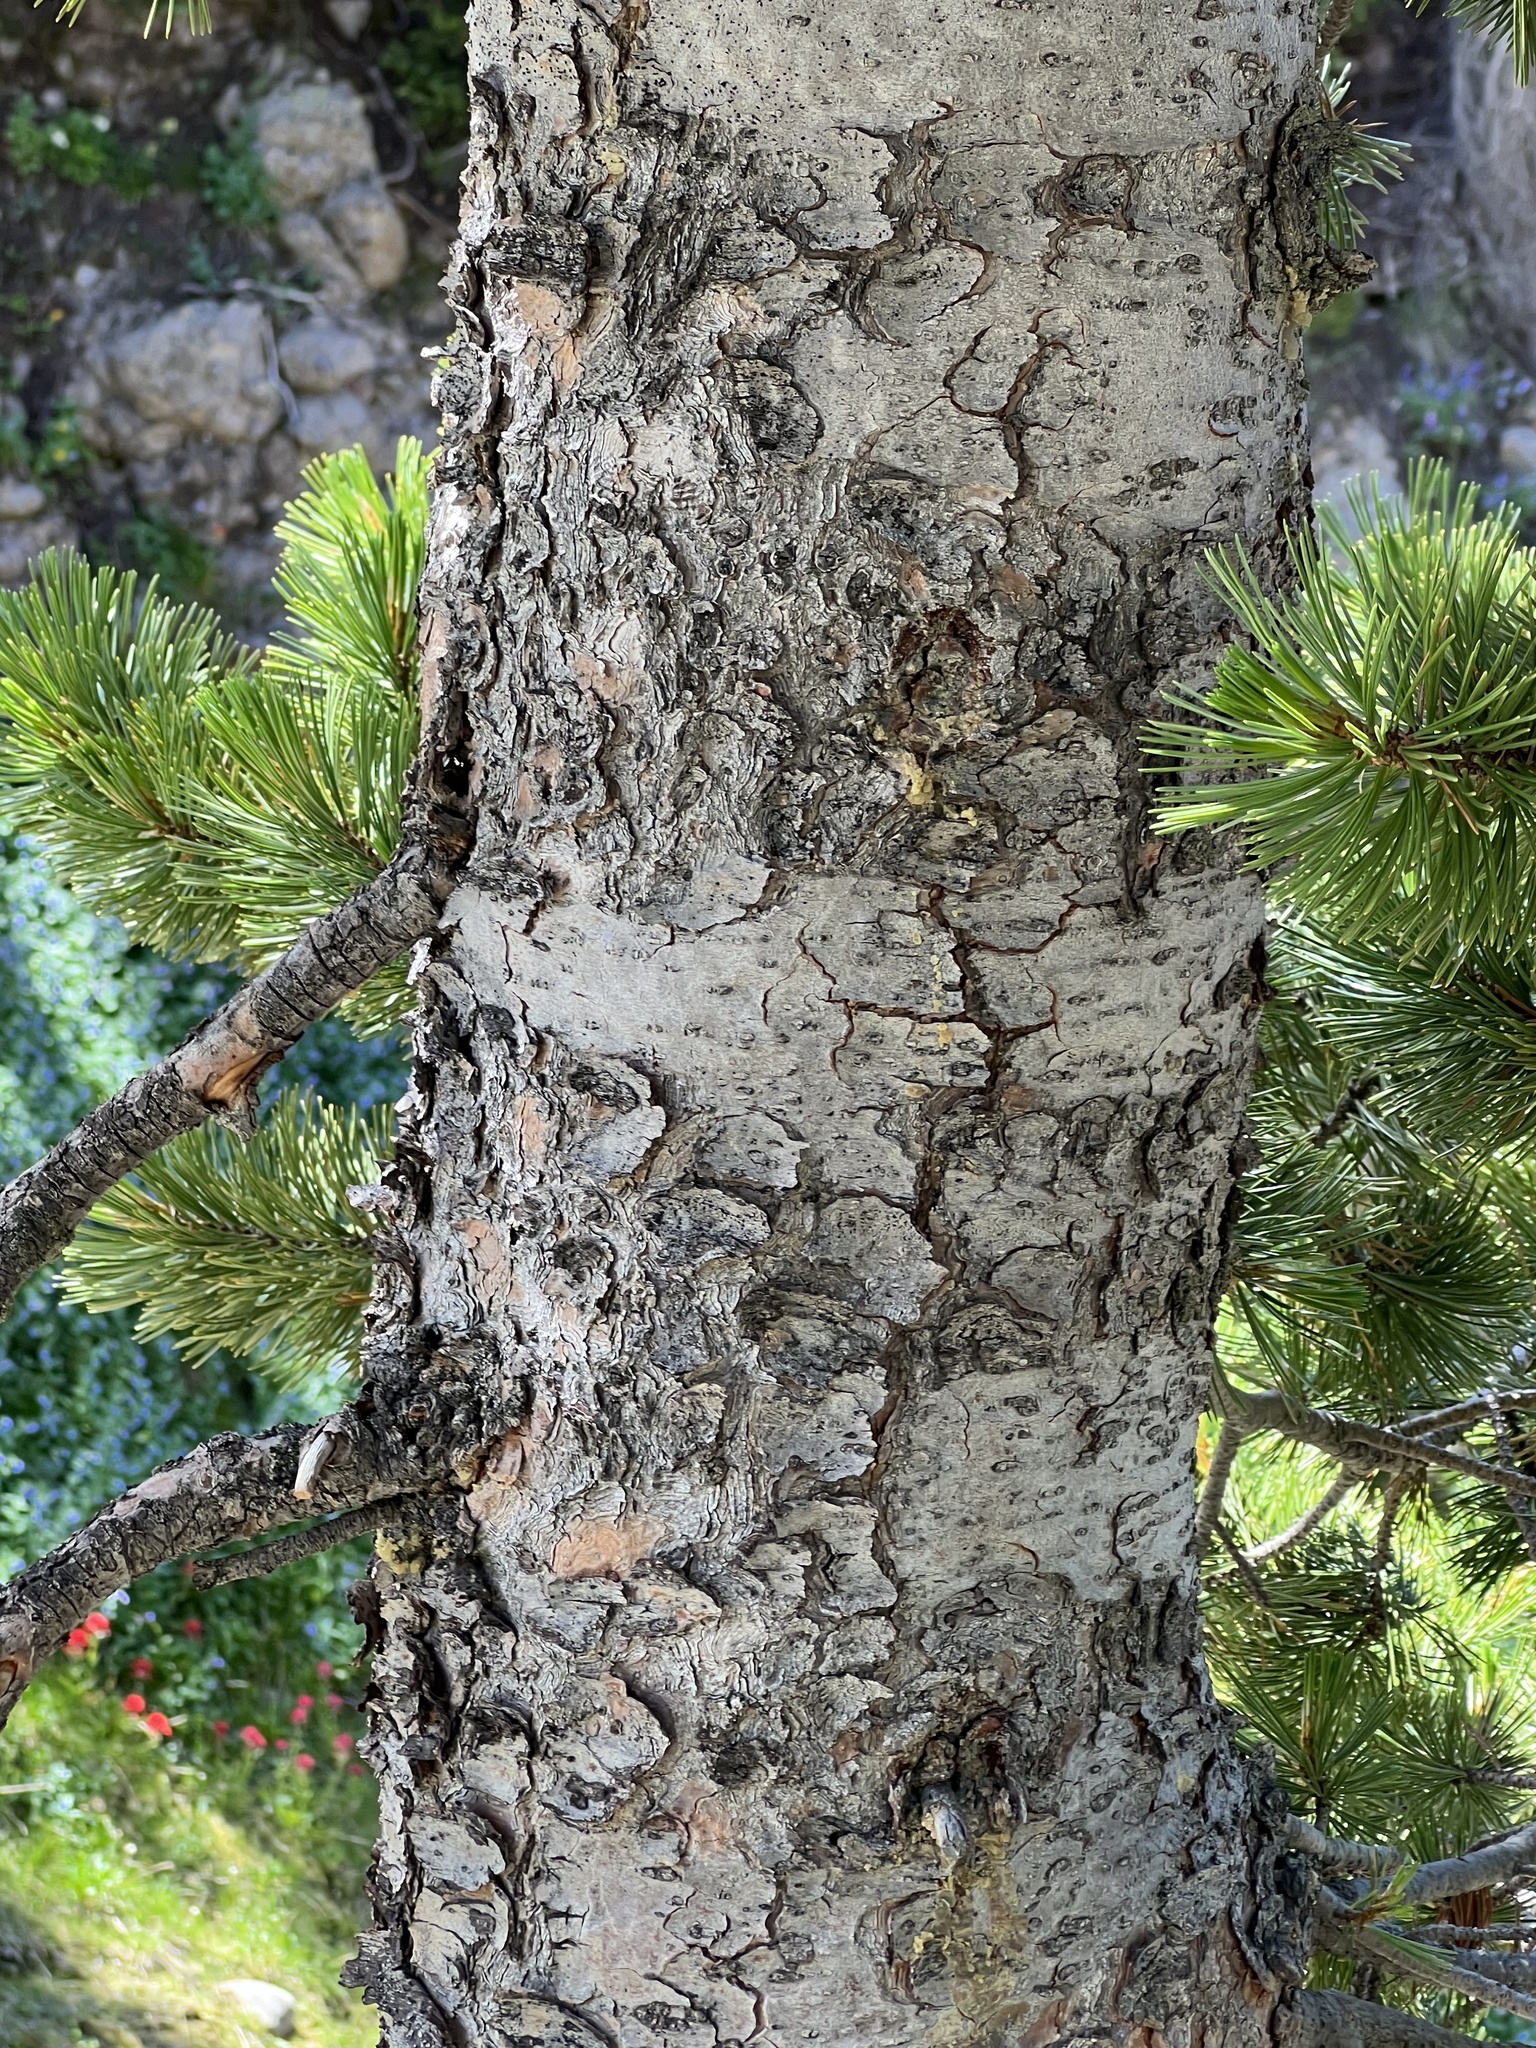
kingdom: Plantae
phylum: Tracheophyta
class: Pinopsida
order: Pinales
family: Pinaceae
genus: Pinus
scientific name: Pinus albicaulis
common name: Whitebark pine
